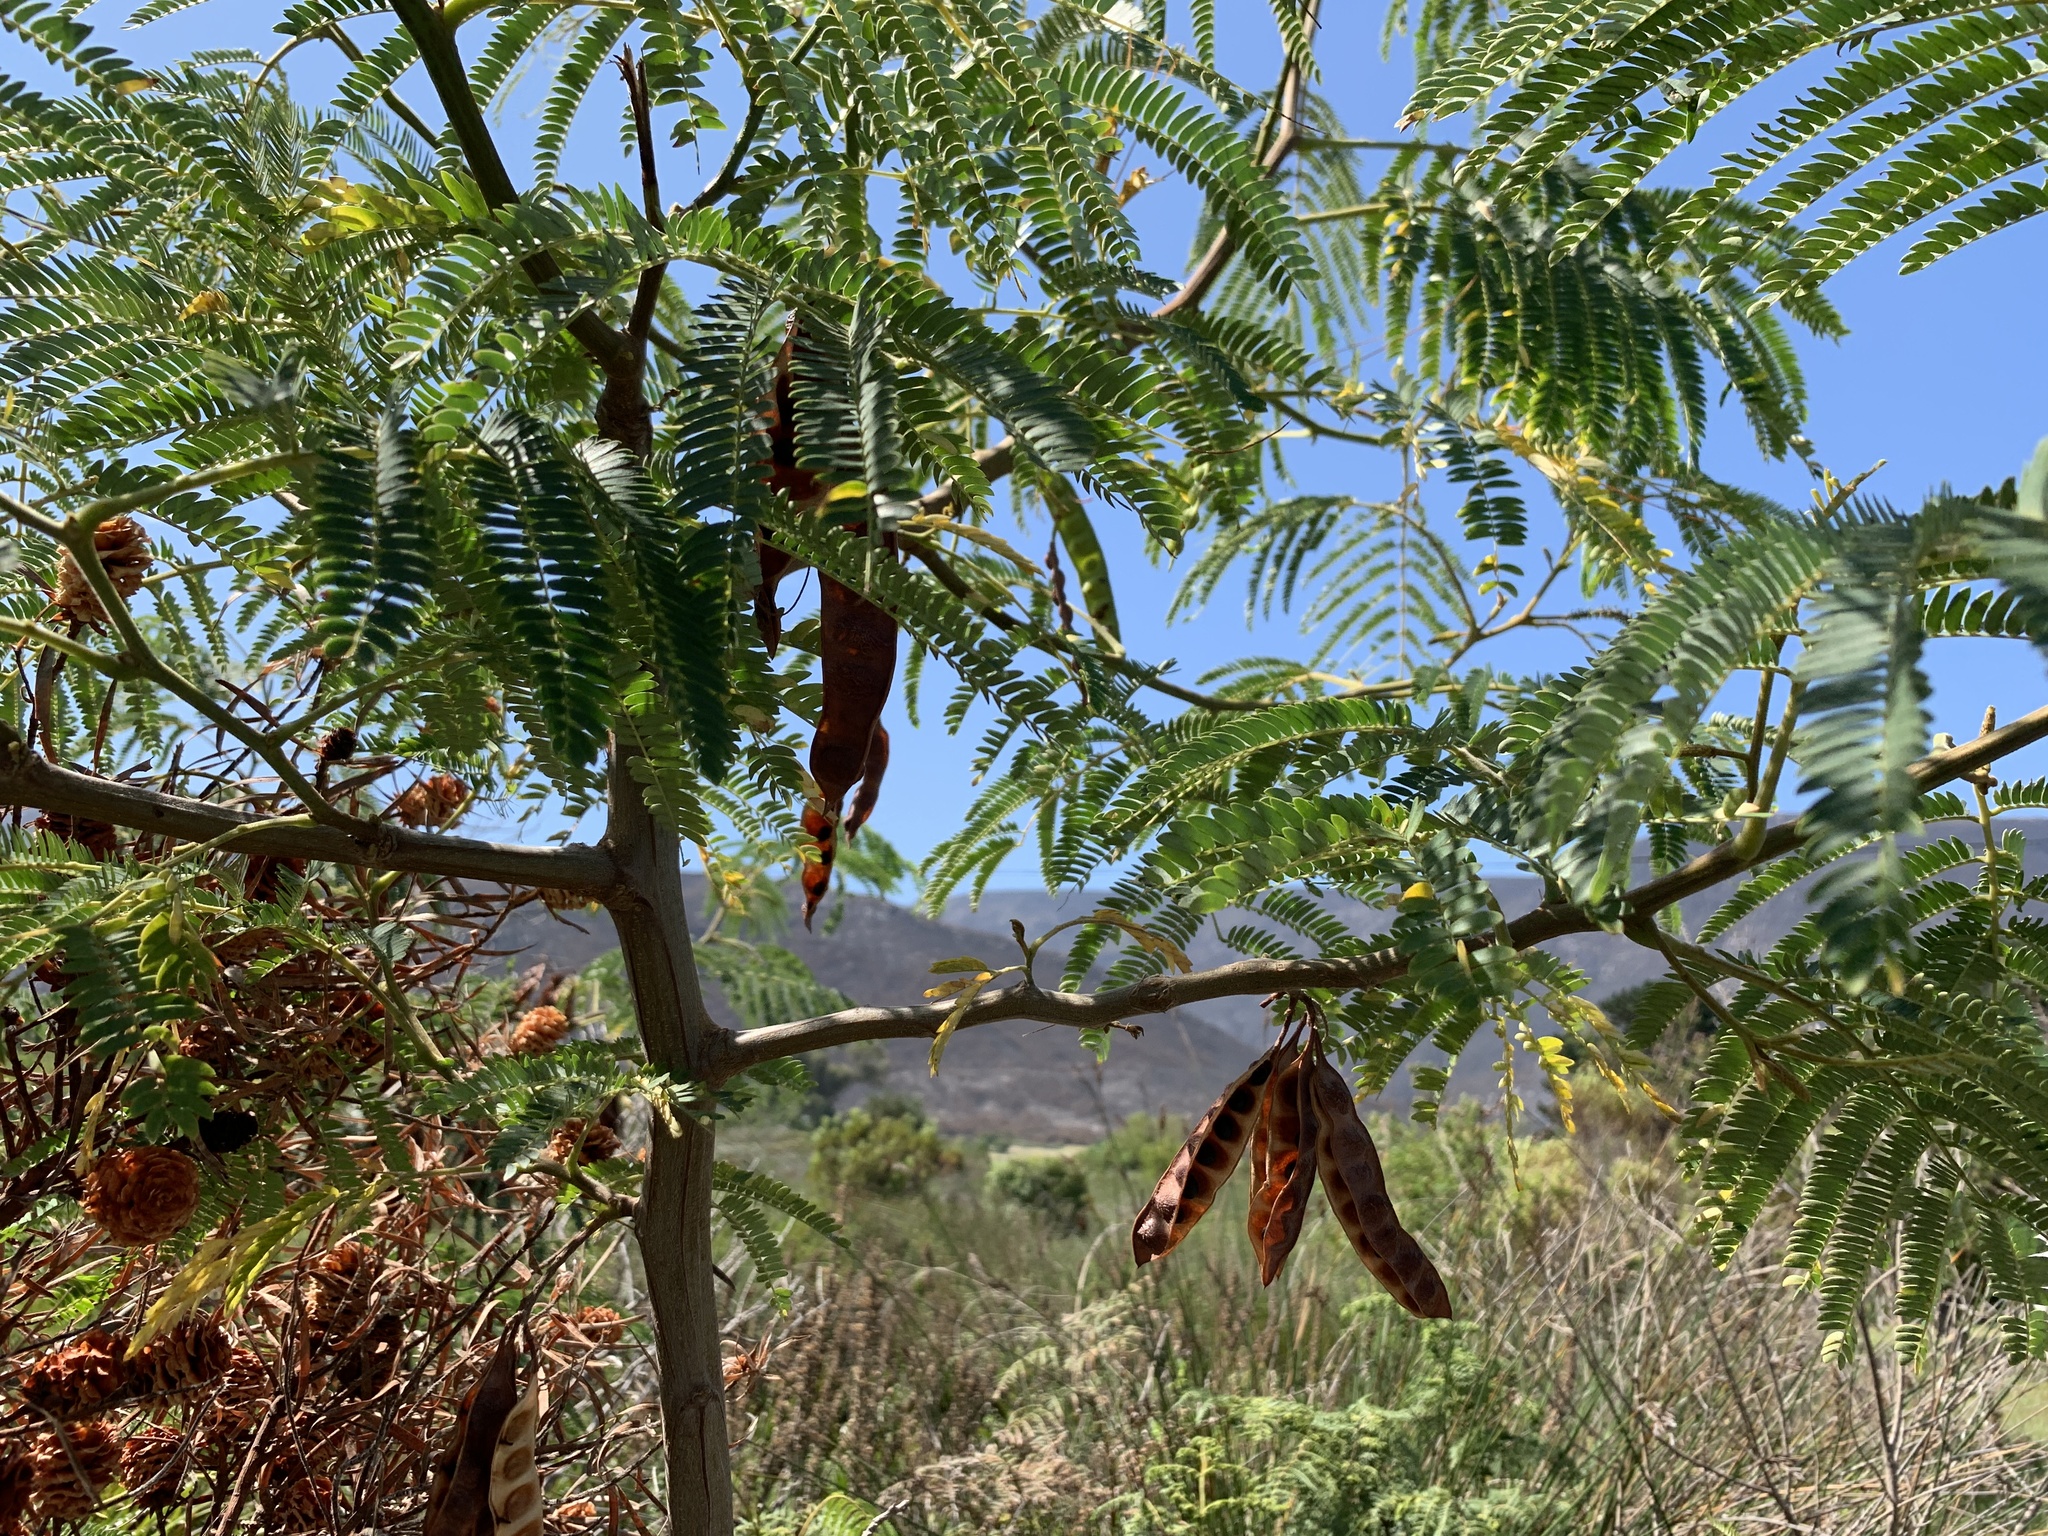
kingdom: Plantae
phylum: Tracheophyta
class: Magnoliopsida
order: Fabales
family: Fabaceae
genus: Paraserianthes
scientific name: Paraserianthes lophantha
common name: Plume albizia
